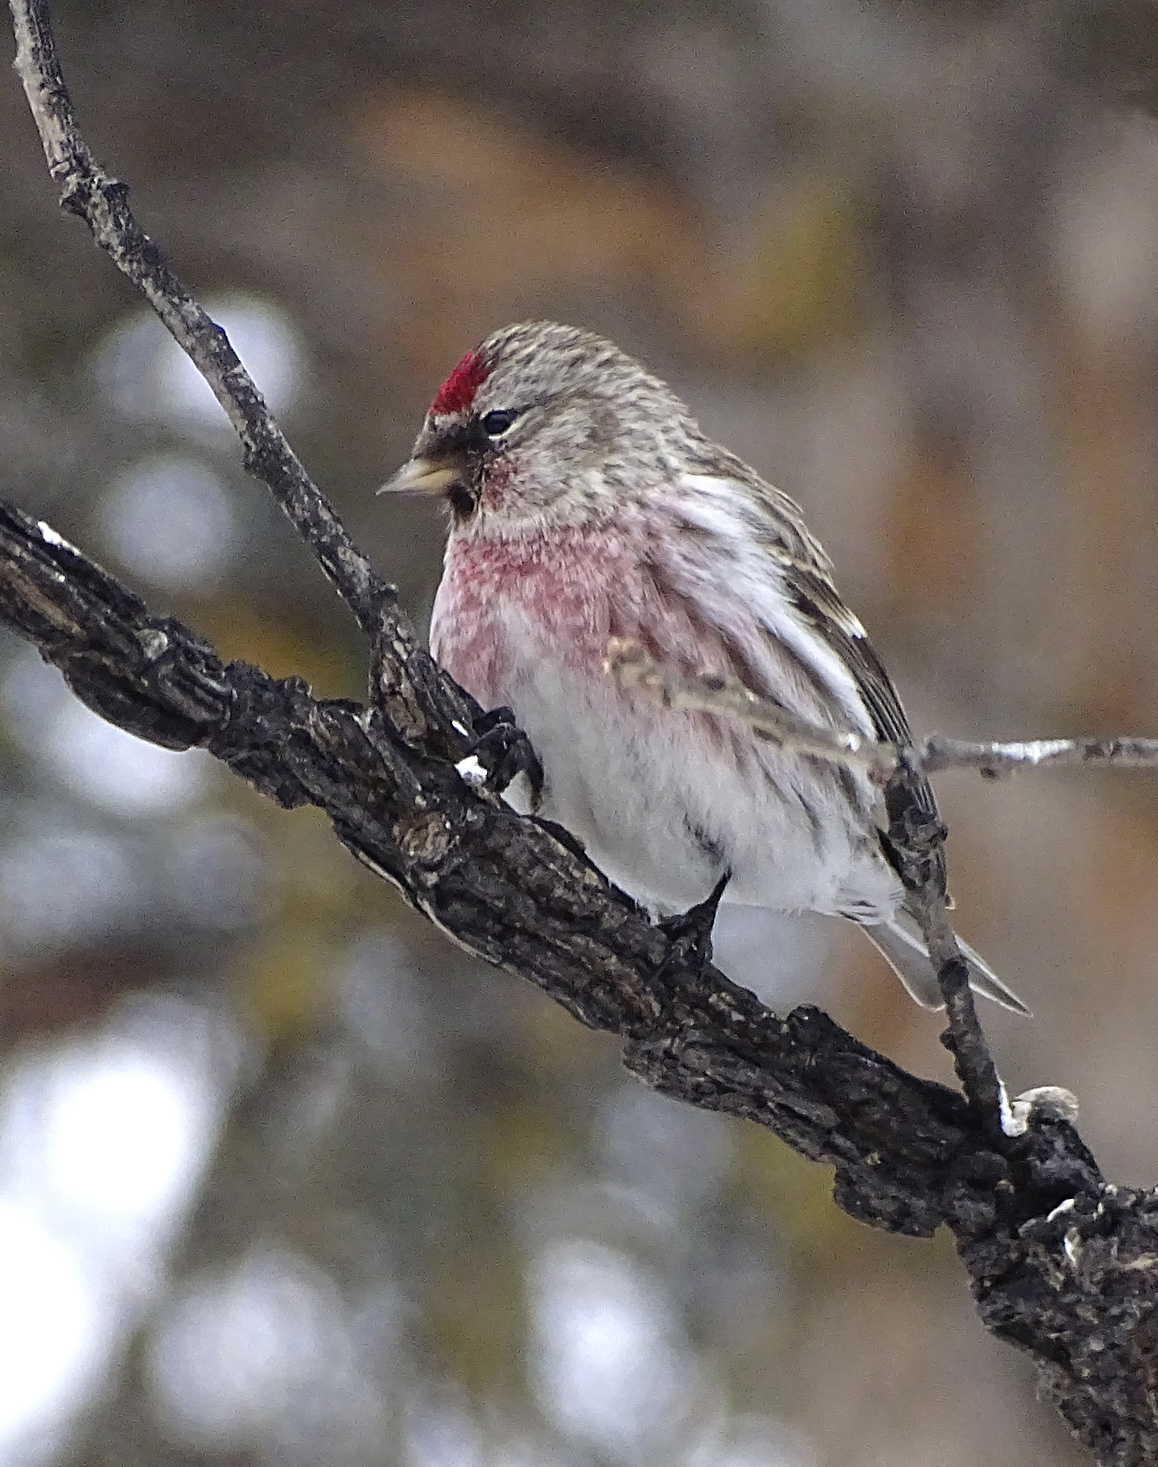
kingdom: Animalia
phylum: Chordata
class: Aves
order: Passeriformes
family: Fringillidae
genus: Acanthis
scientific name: Acanthis flammea
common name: Common redpoll
